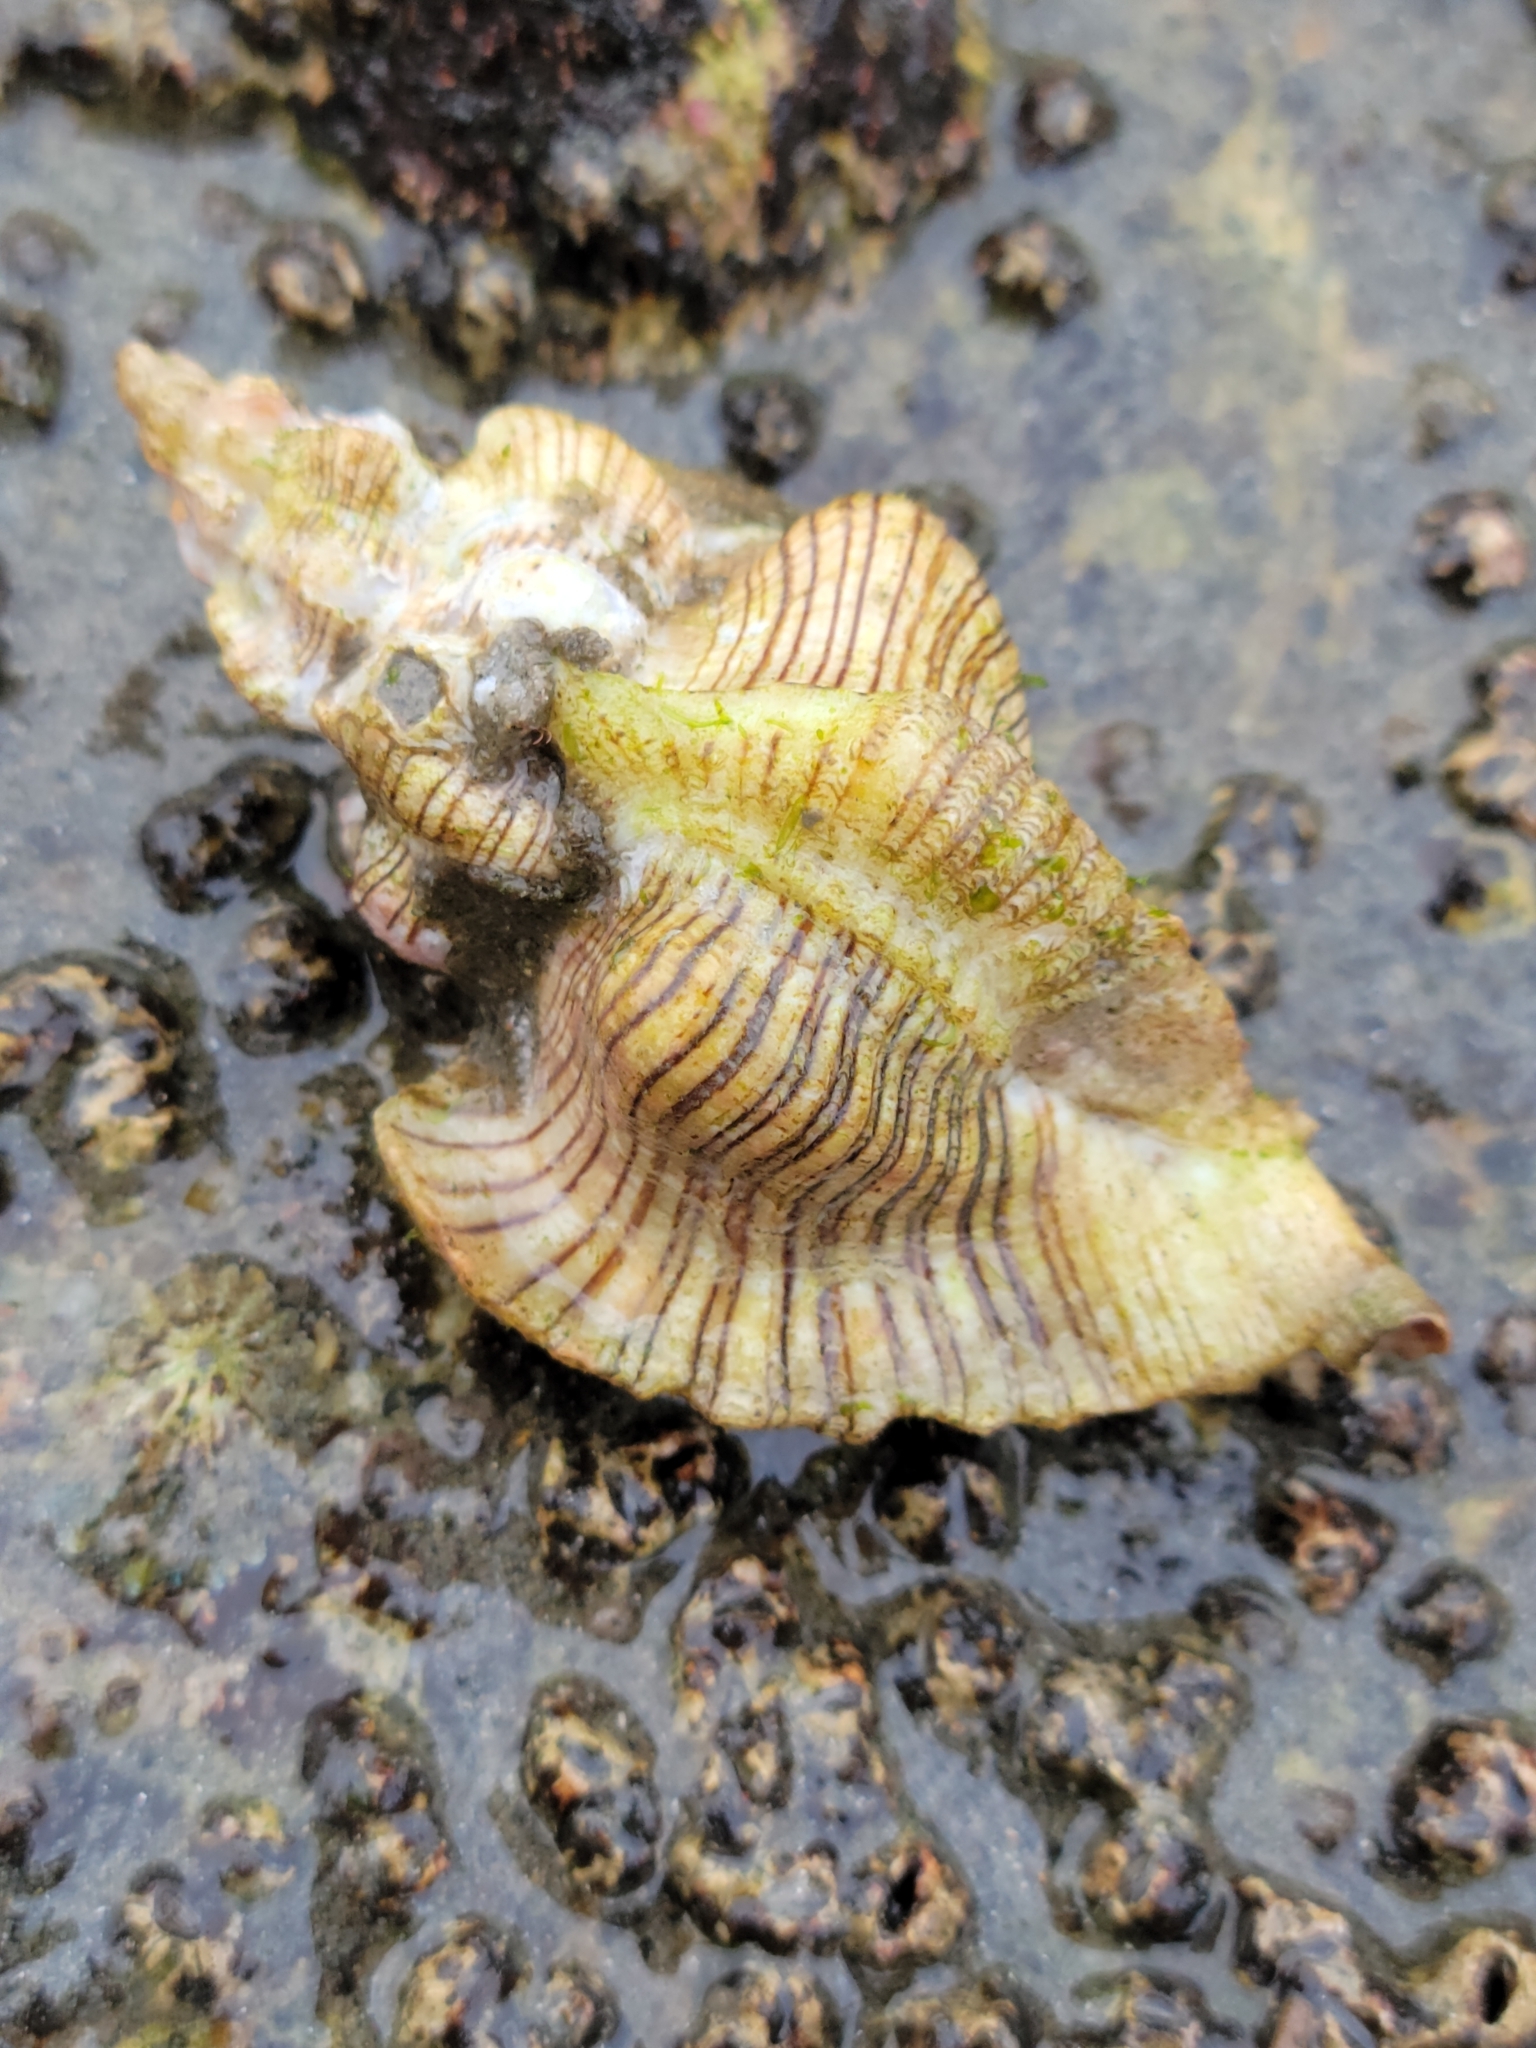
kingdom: Animalia
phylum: Mollusca
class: Gastropoda
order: Neogastropoda
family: Muricidae
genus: Pteropurpura
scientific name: Pteropurpura festiva
